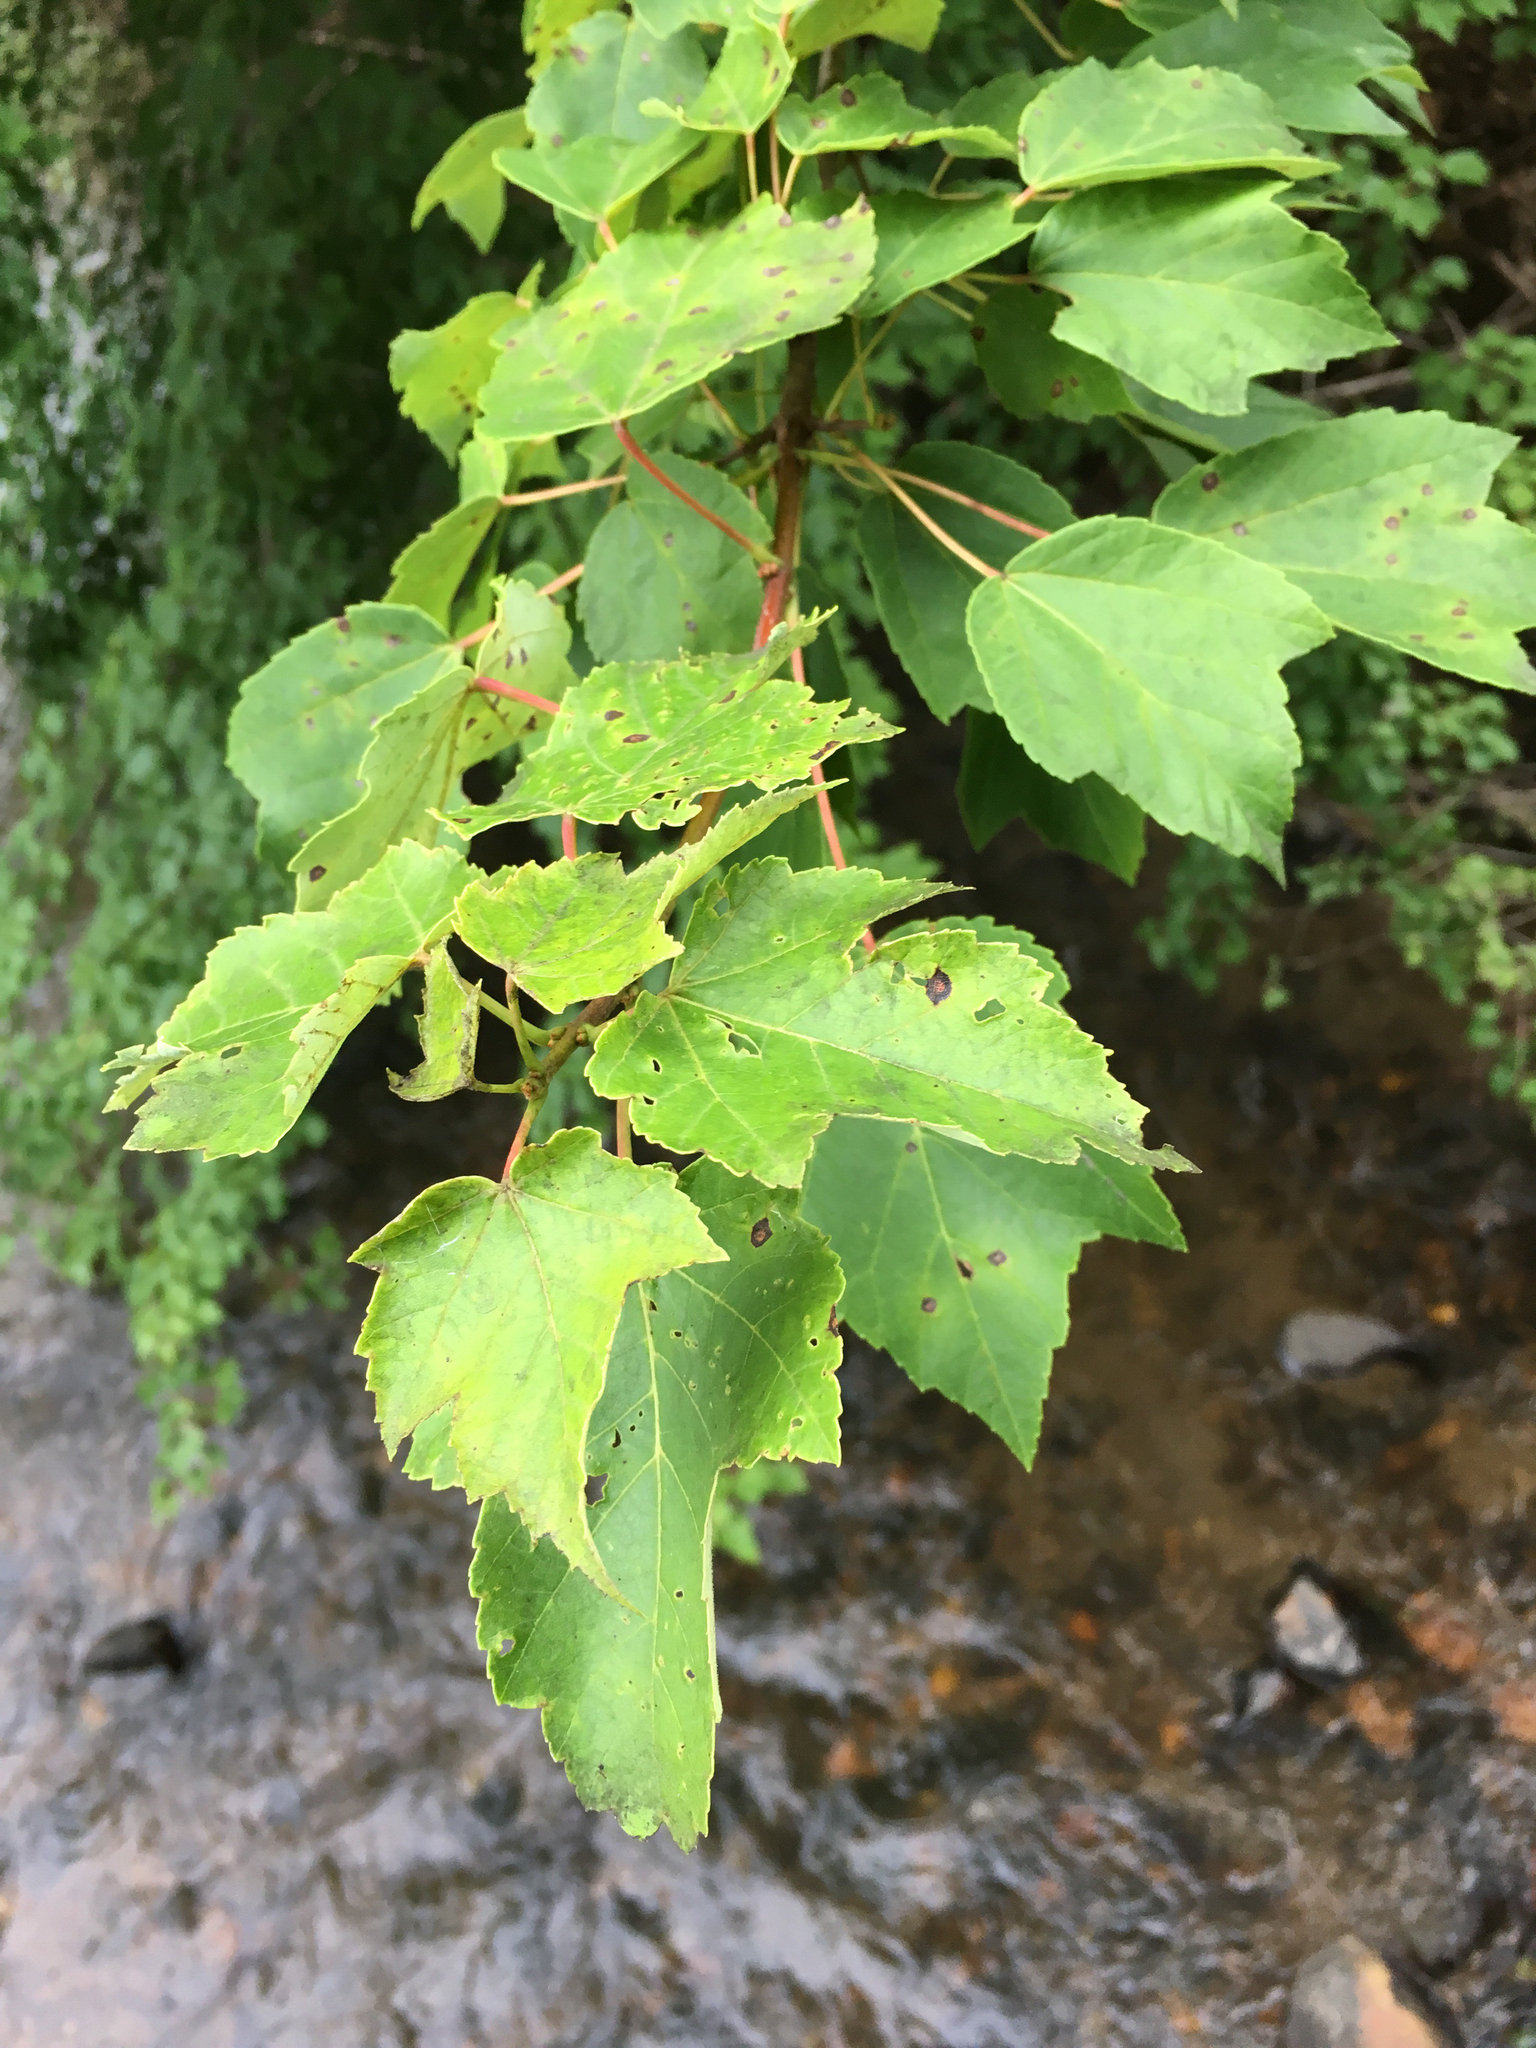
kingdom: Plantae
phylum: Tracheophyta
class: Magnoliopsida
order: Sapindales
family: Sapindaceae
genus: Acer
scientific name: Acer rubrum
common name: Red maple
